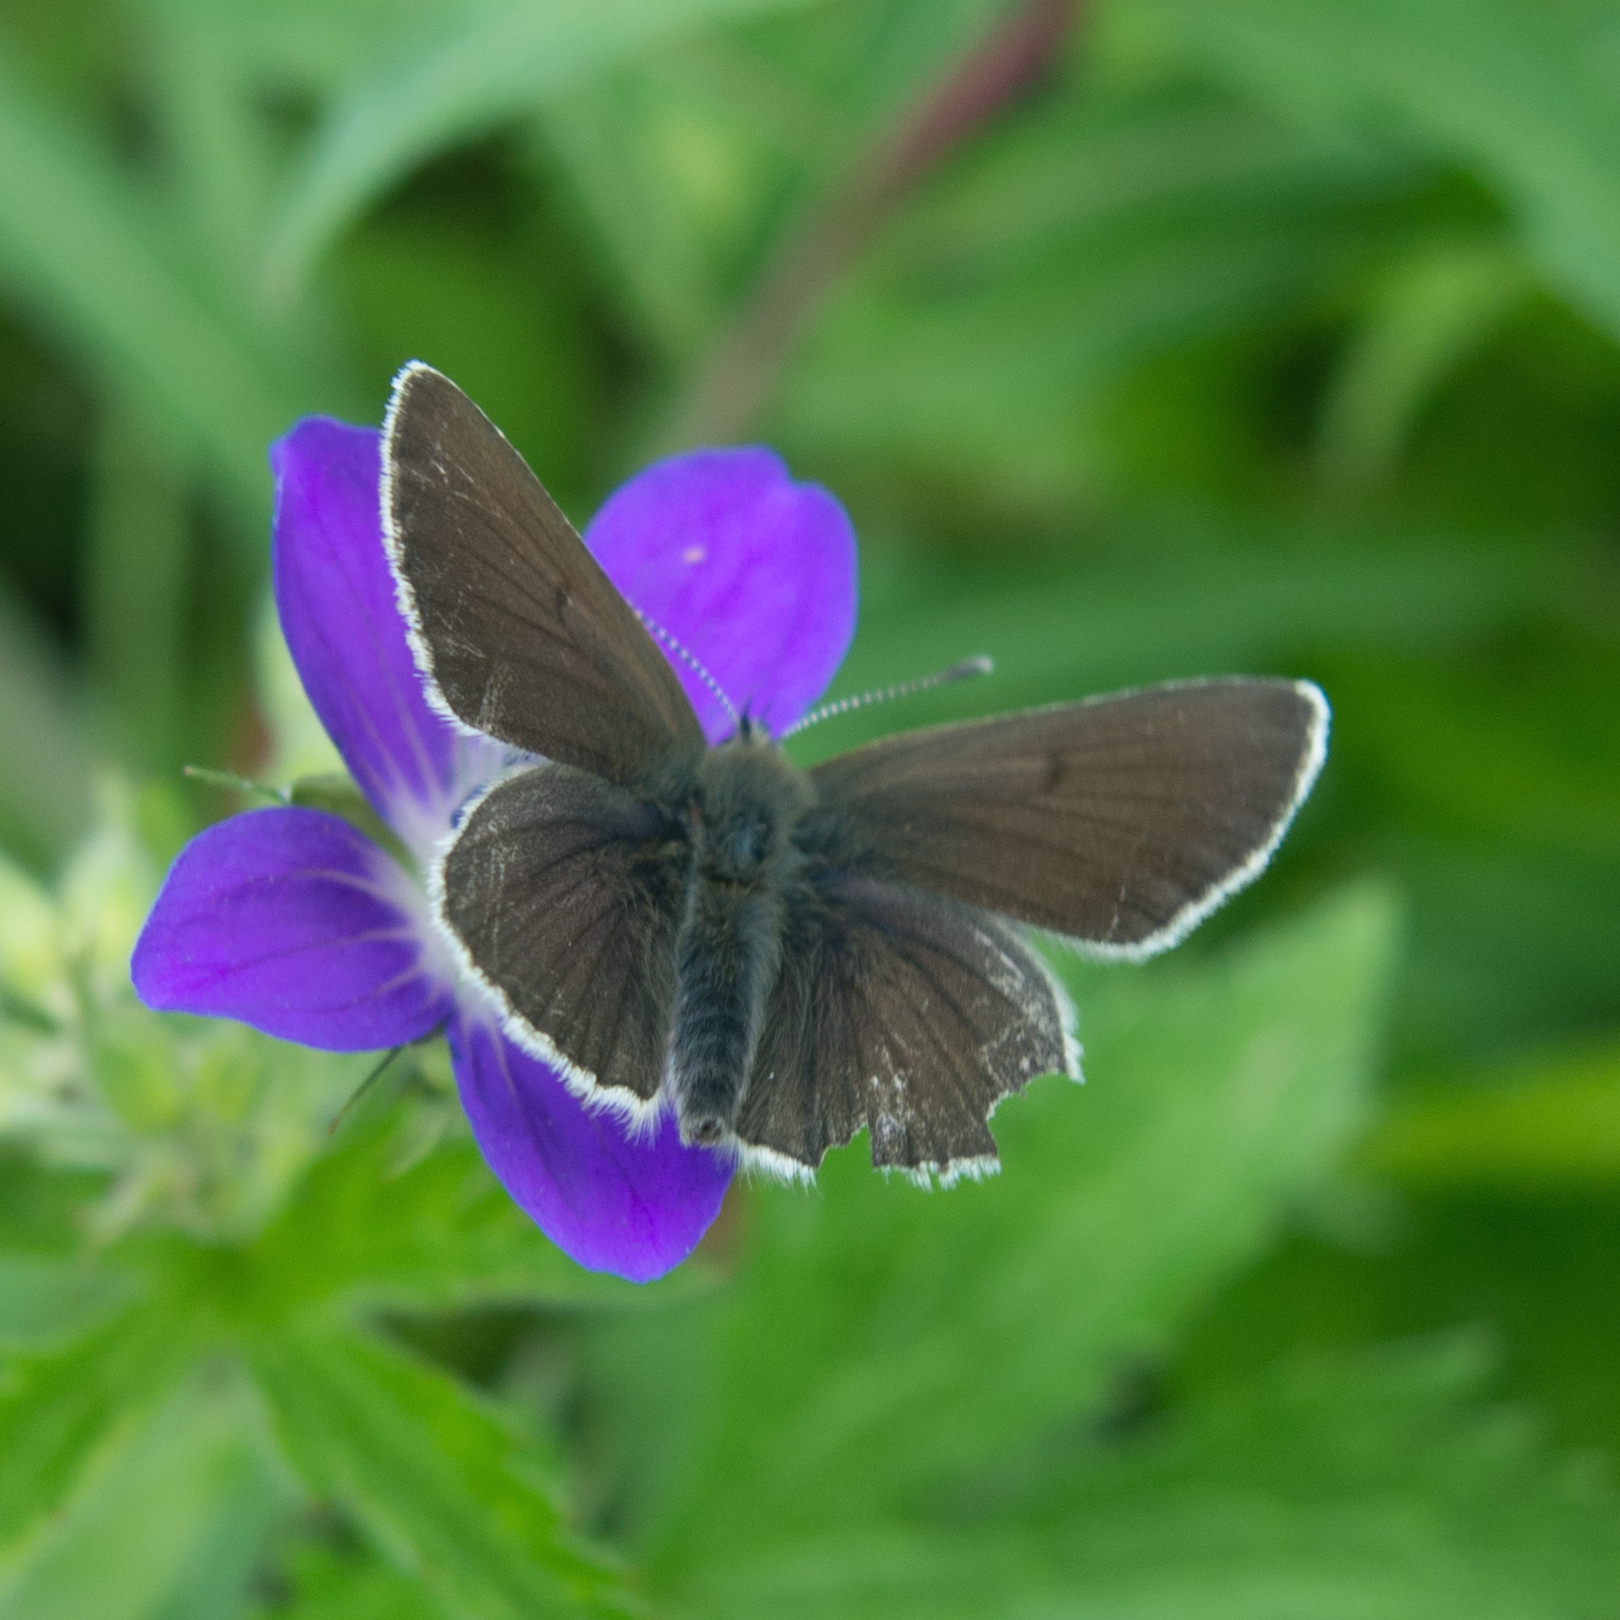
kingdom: Animalia
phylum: Arthropoda
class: Insecta
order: Lepidoptera
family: Lycaenidae
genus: Eumedonia
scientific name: Eumedonia eumedon
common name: Geranium argus
